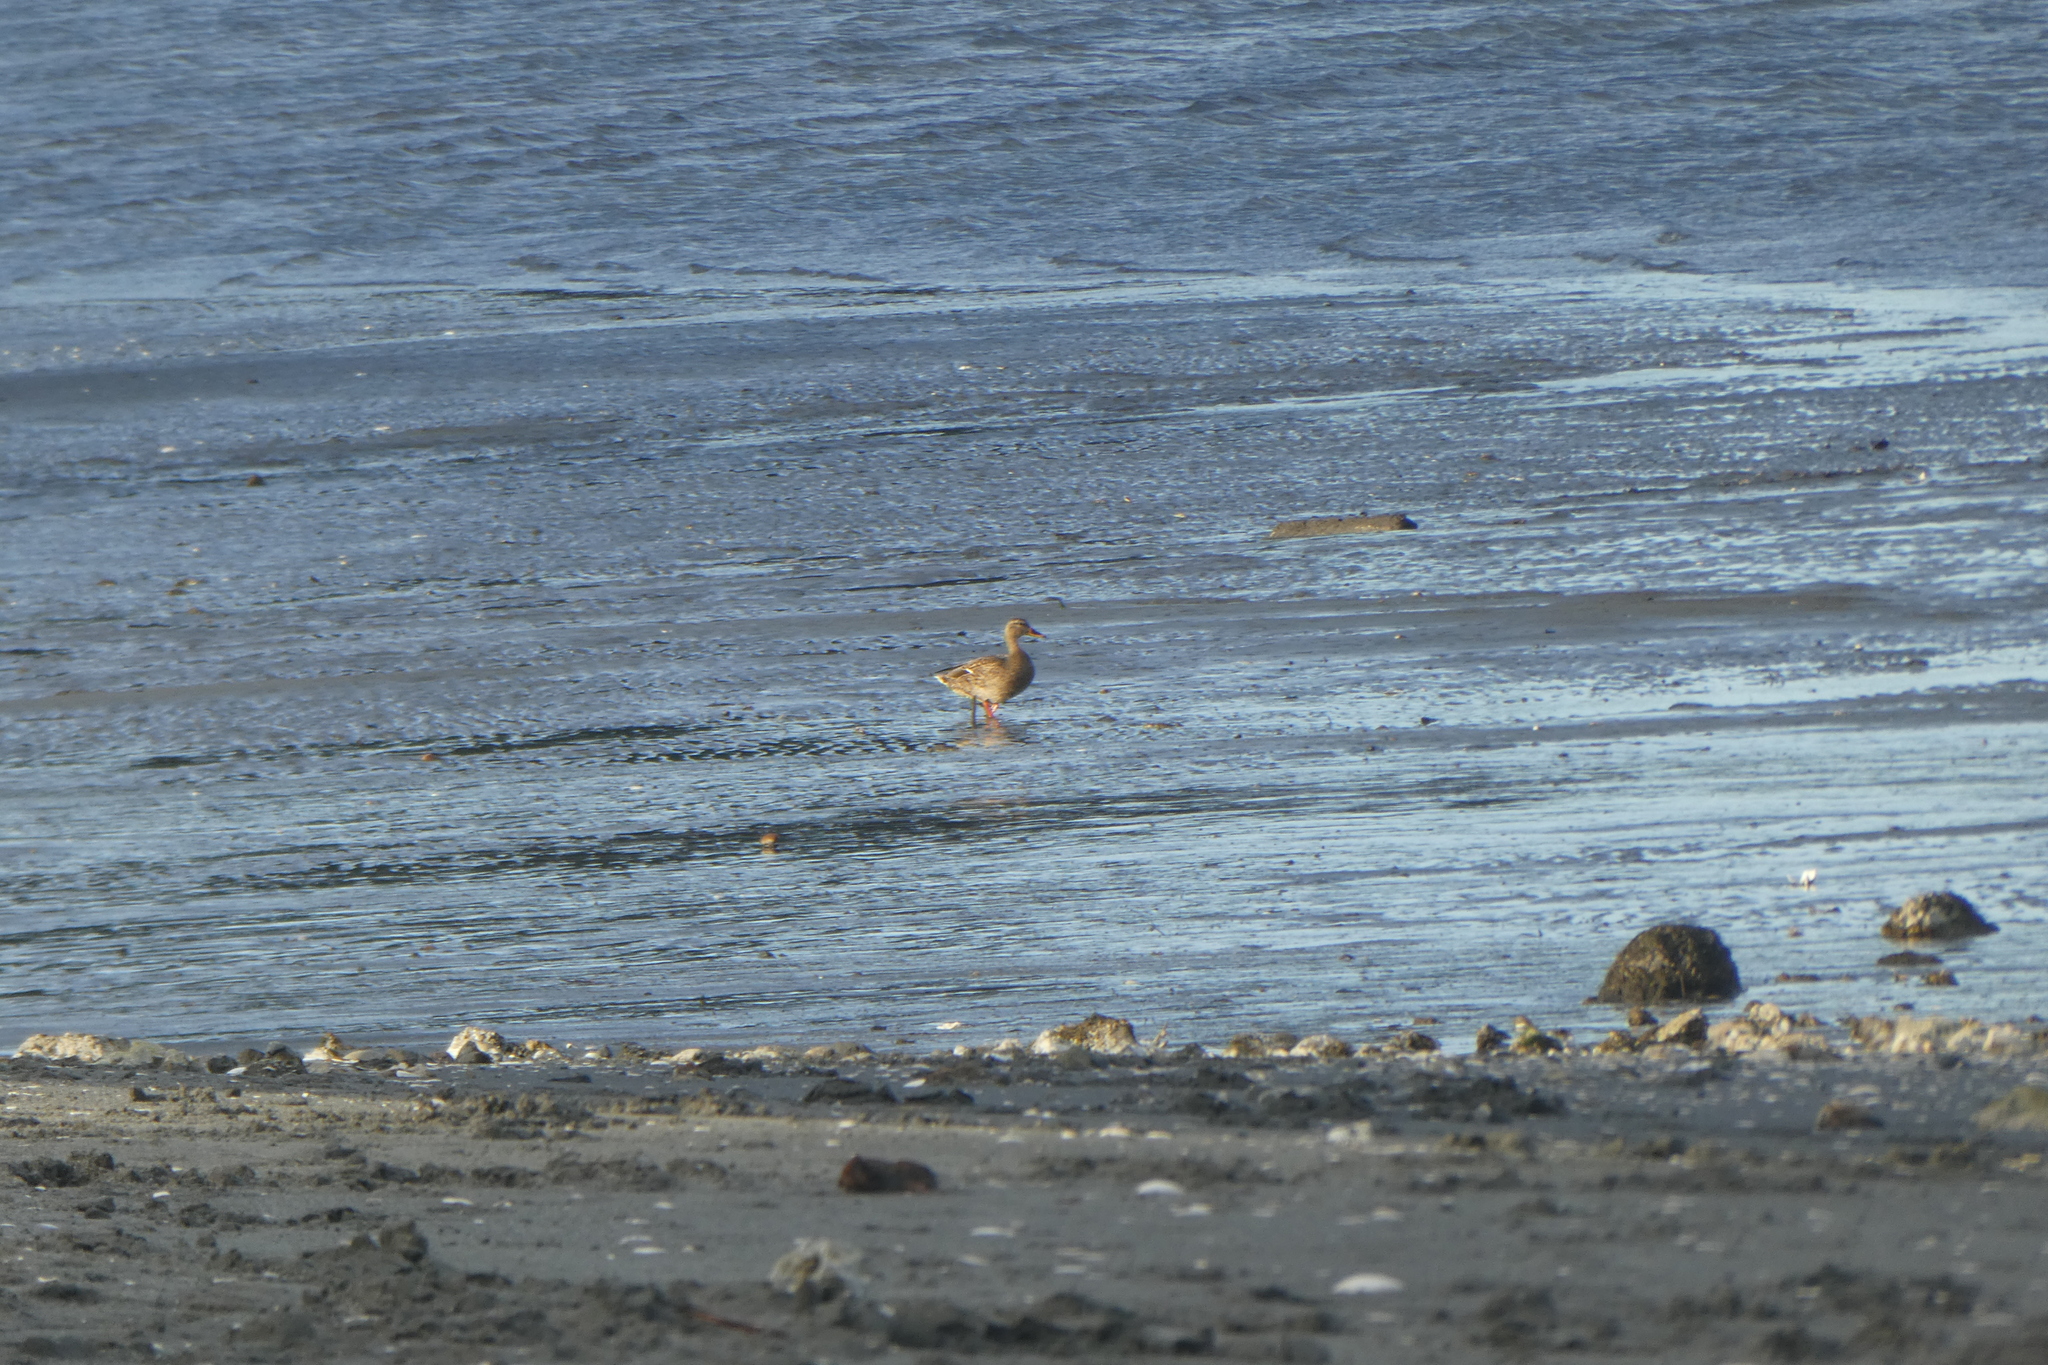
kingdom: Animalia
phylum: Chordata
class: Aves
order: Anseriformes
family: Anatidae
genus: Anas
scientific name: Anas platyrhynchos
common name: Mallard
